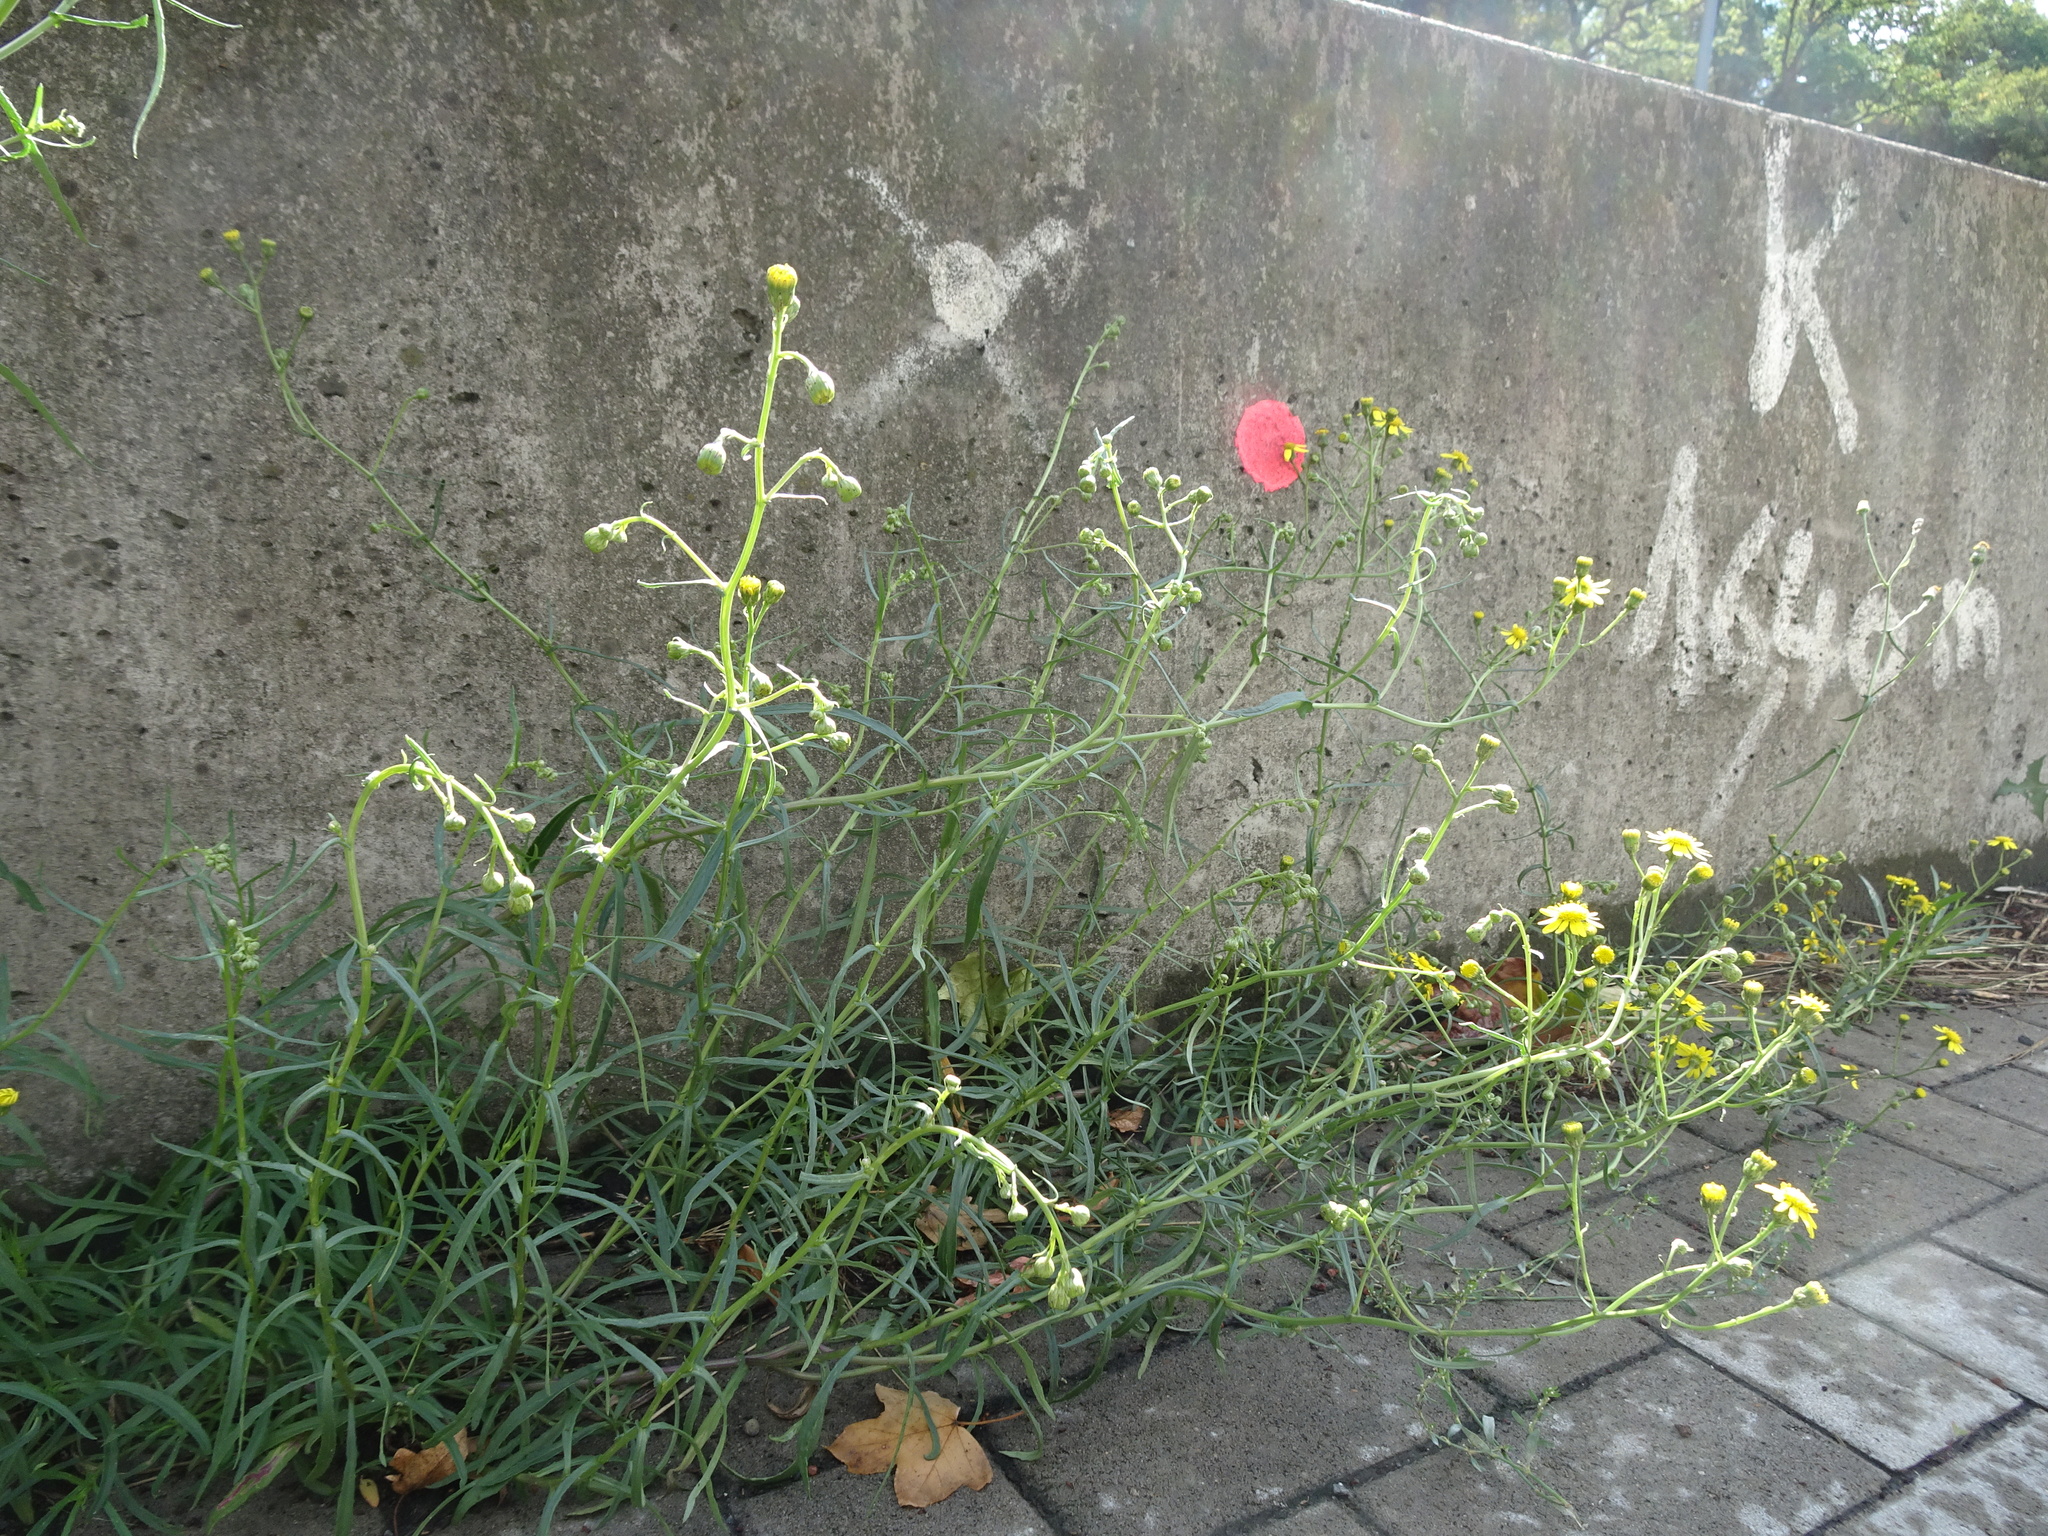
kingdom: Plantae
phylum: Tracheophyta
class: Magnoliopsida
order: Asterales
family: Asteraceae
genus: Senecio
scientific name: Senecio inaequidens
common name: Narrow-leaved ragwort
